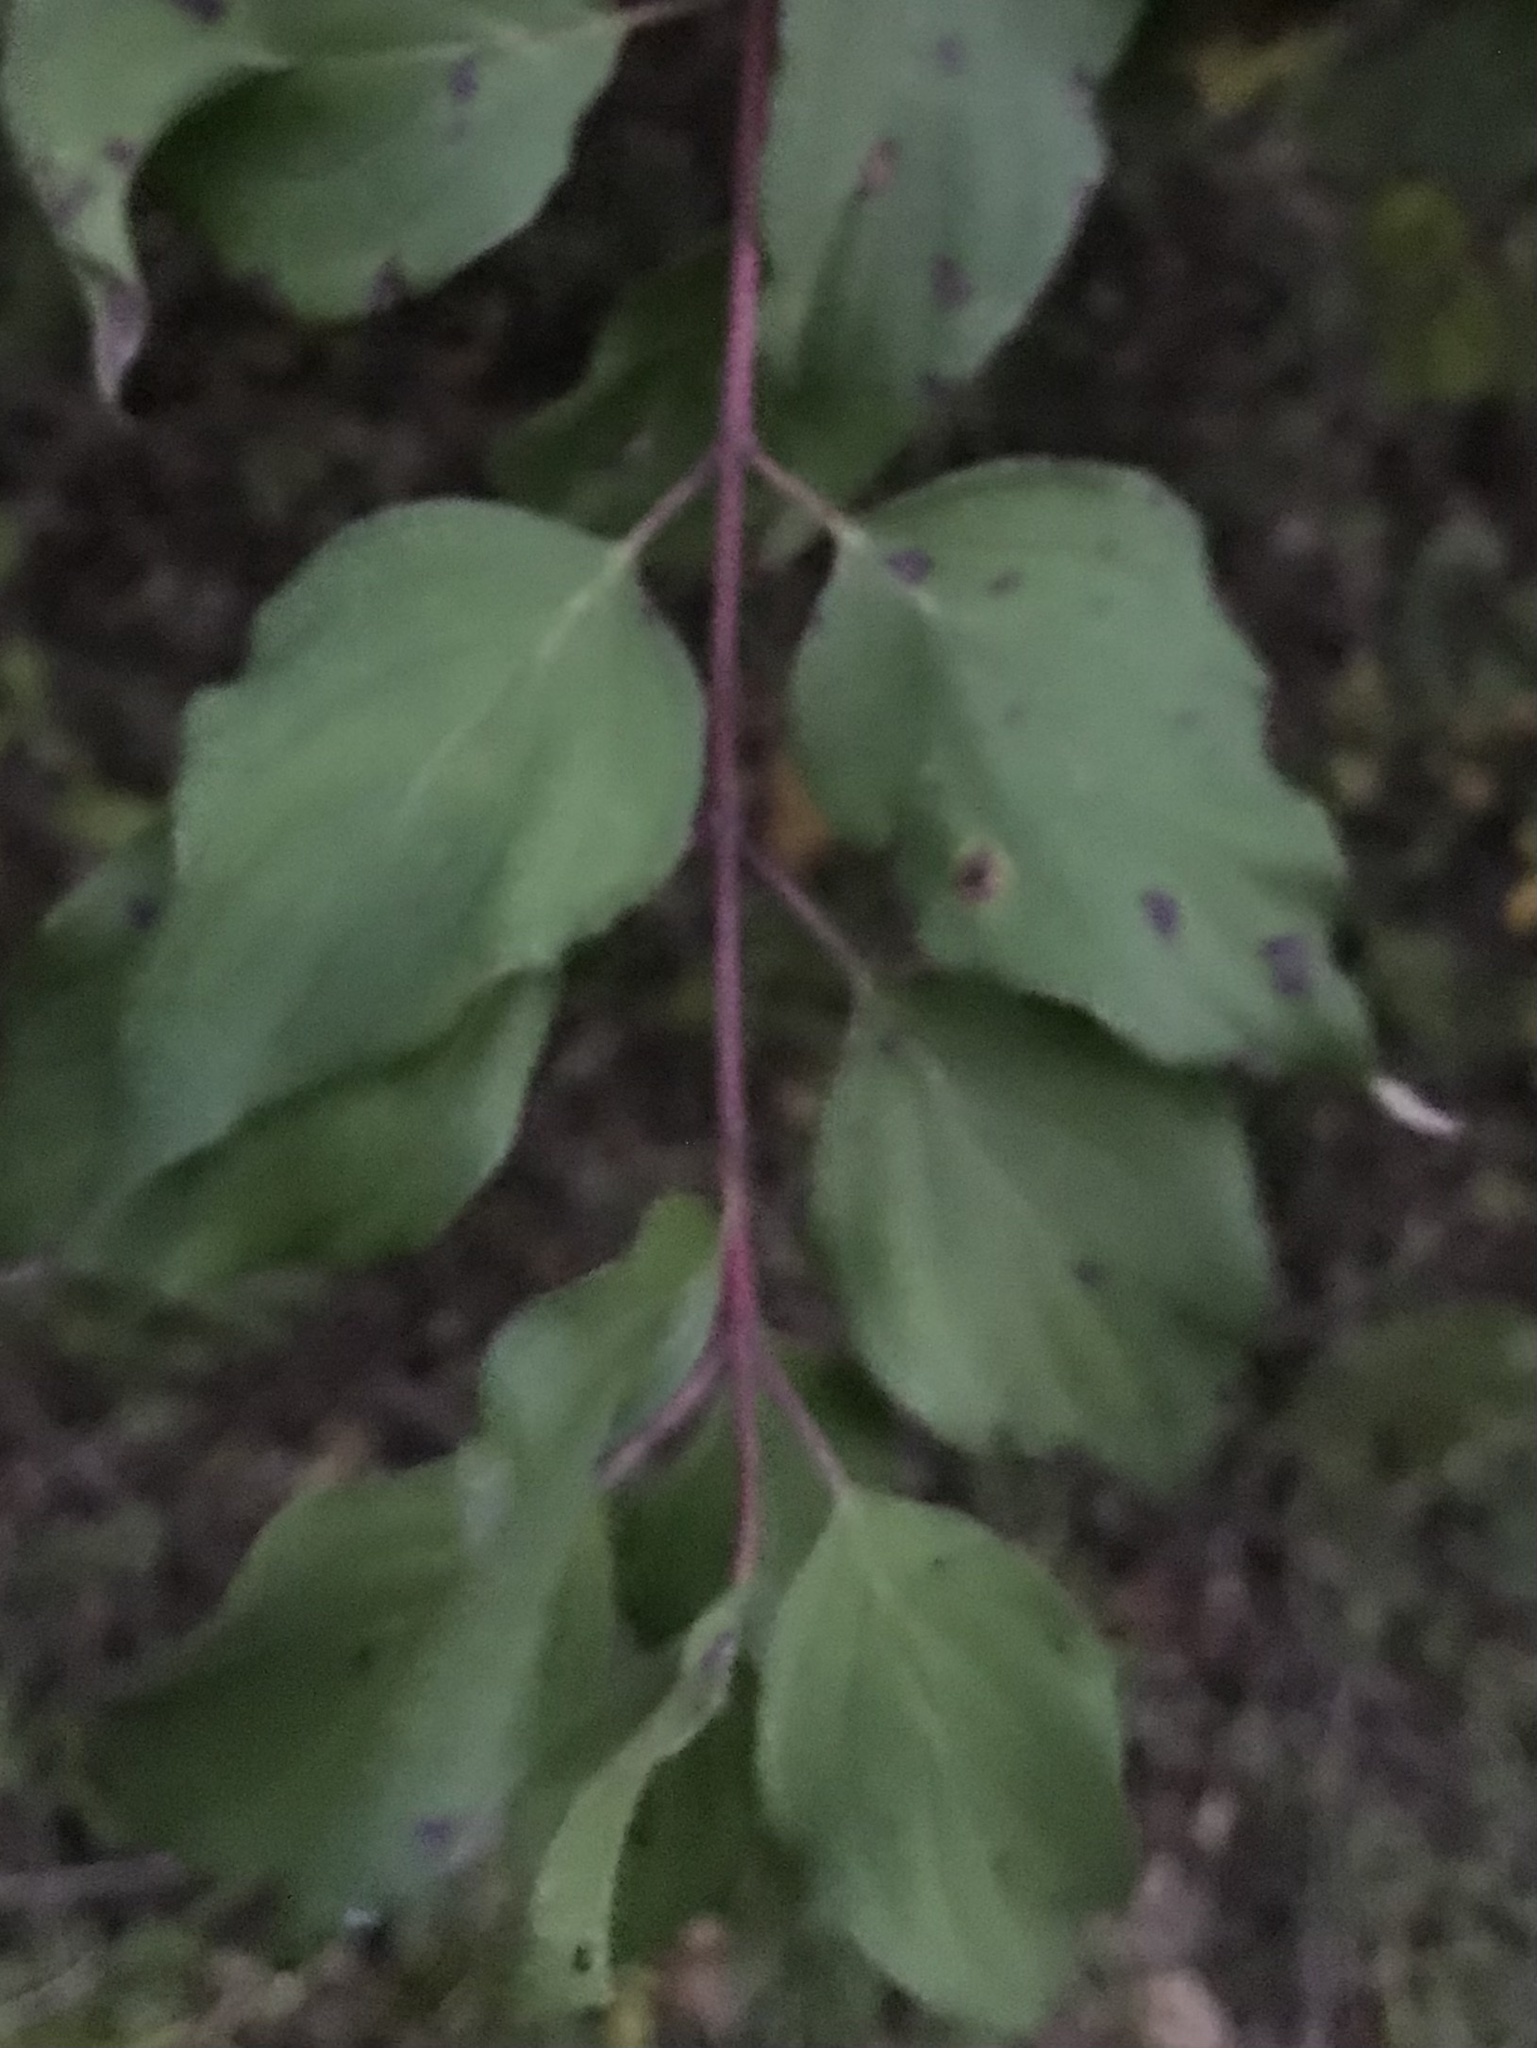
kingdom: Plantae
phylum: Tracheophyta
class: Magnoliopsida
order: Cornales
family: Cornaceae
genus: Cornus
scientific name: Cornus drummondii
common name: Rough-leaf dogwood
